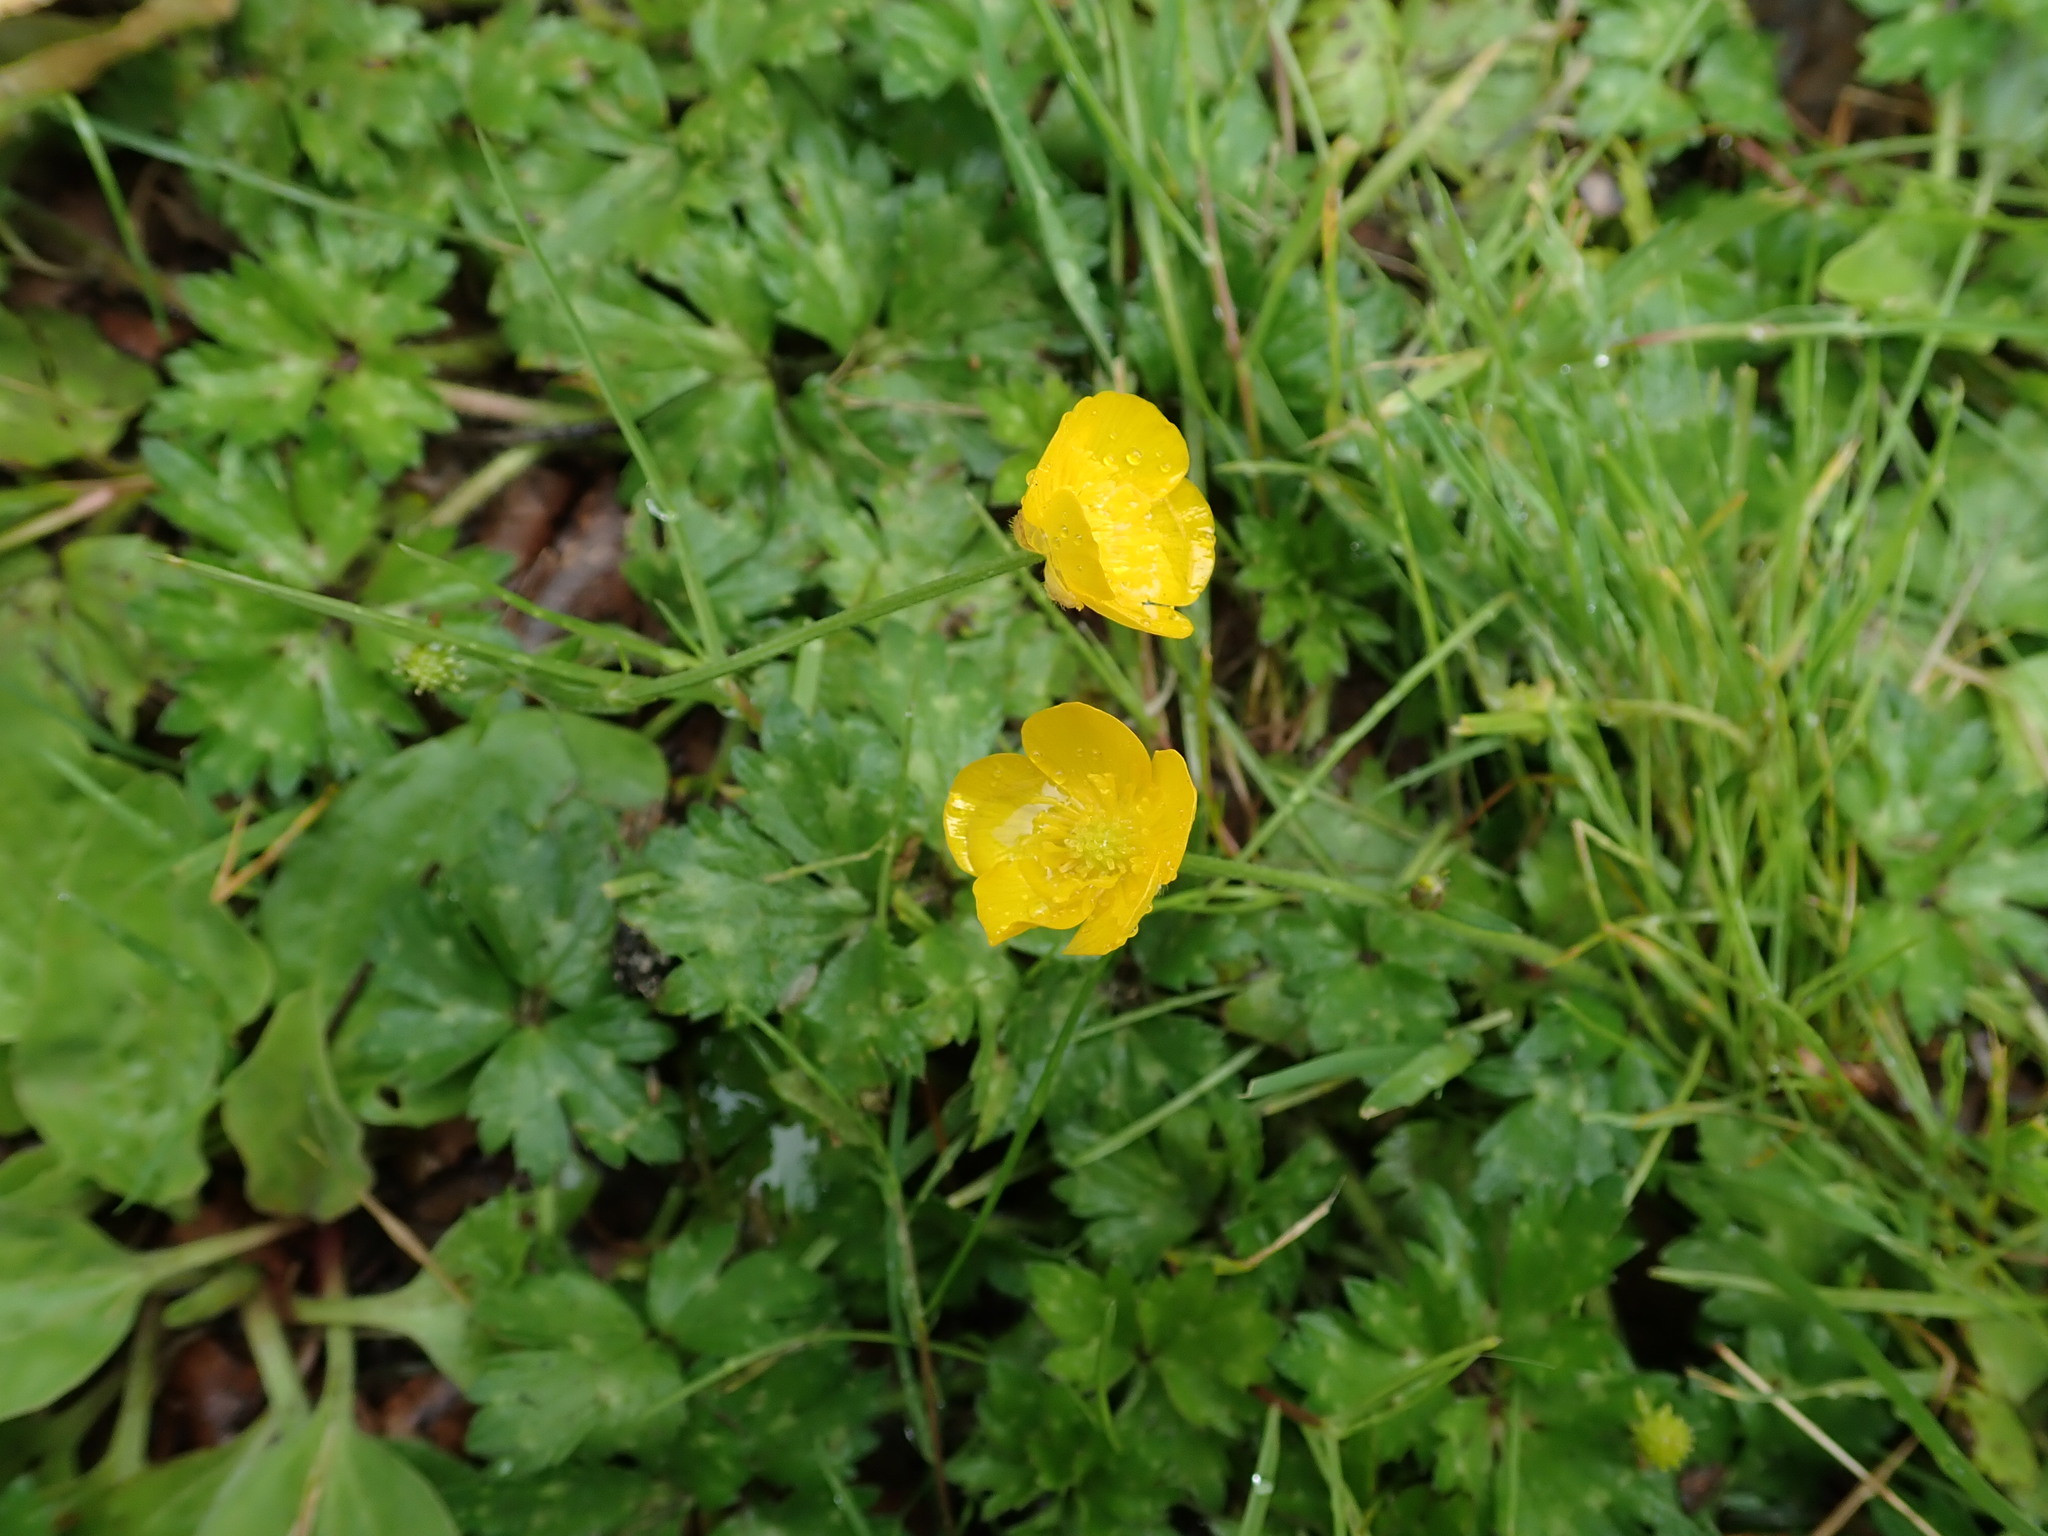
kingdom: Plantae
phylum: Tracheophyta
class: Magnoliopsida
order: Ranunculales
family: Ranunculaceae
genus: Ranunculus
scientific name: Ranunculus repens
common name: Creeping buttercup
